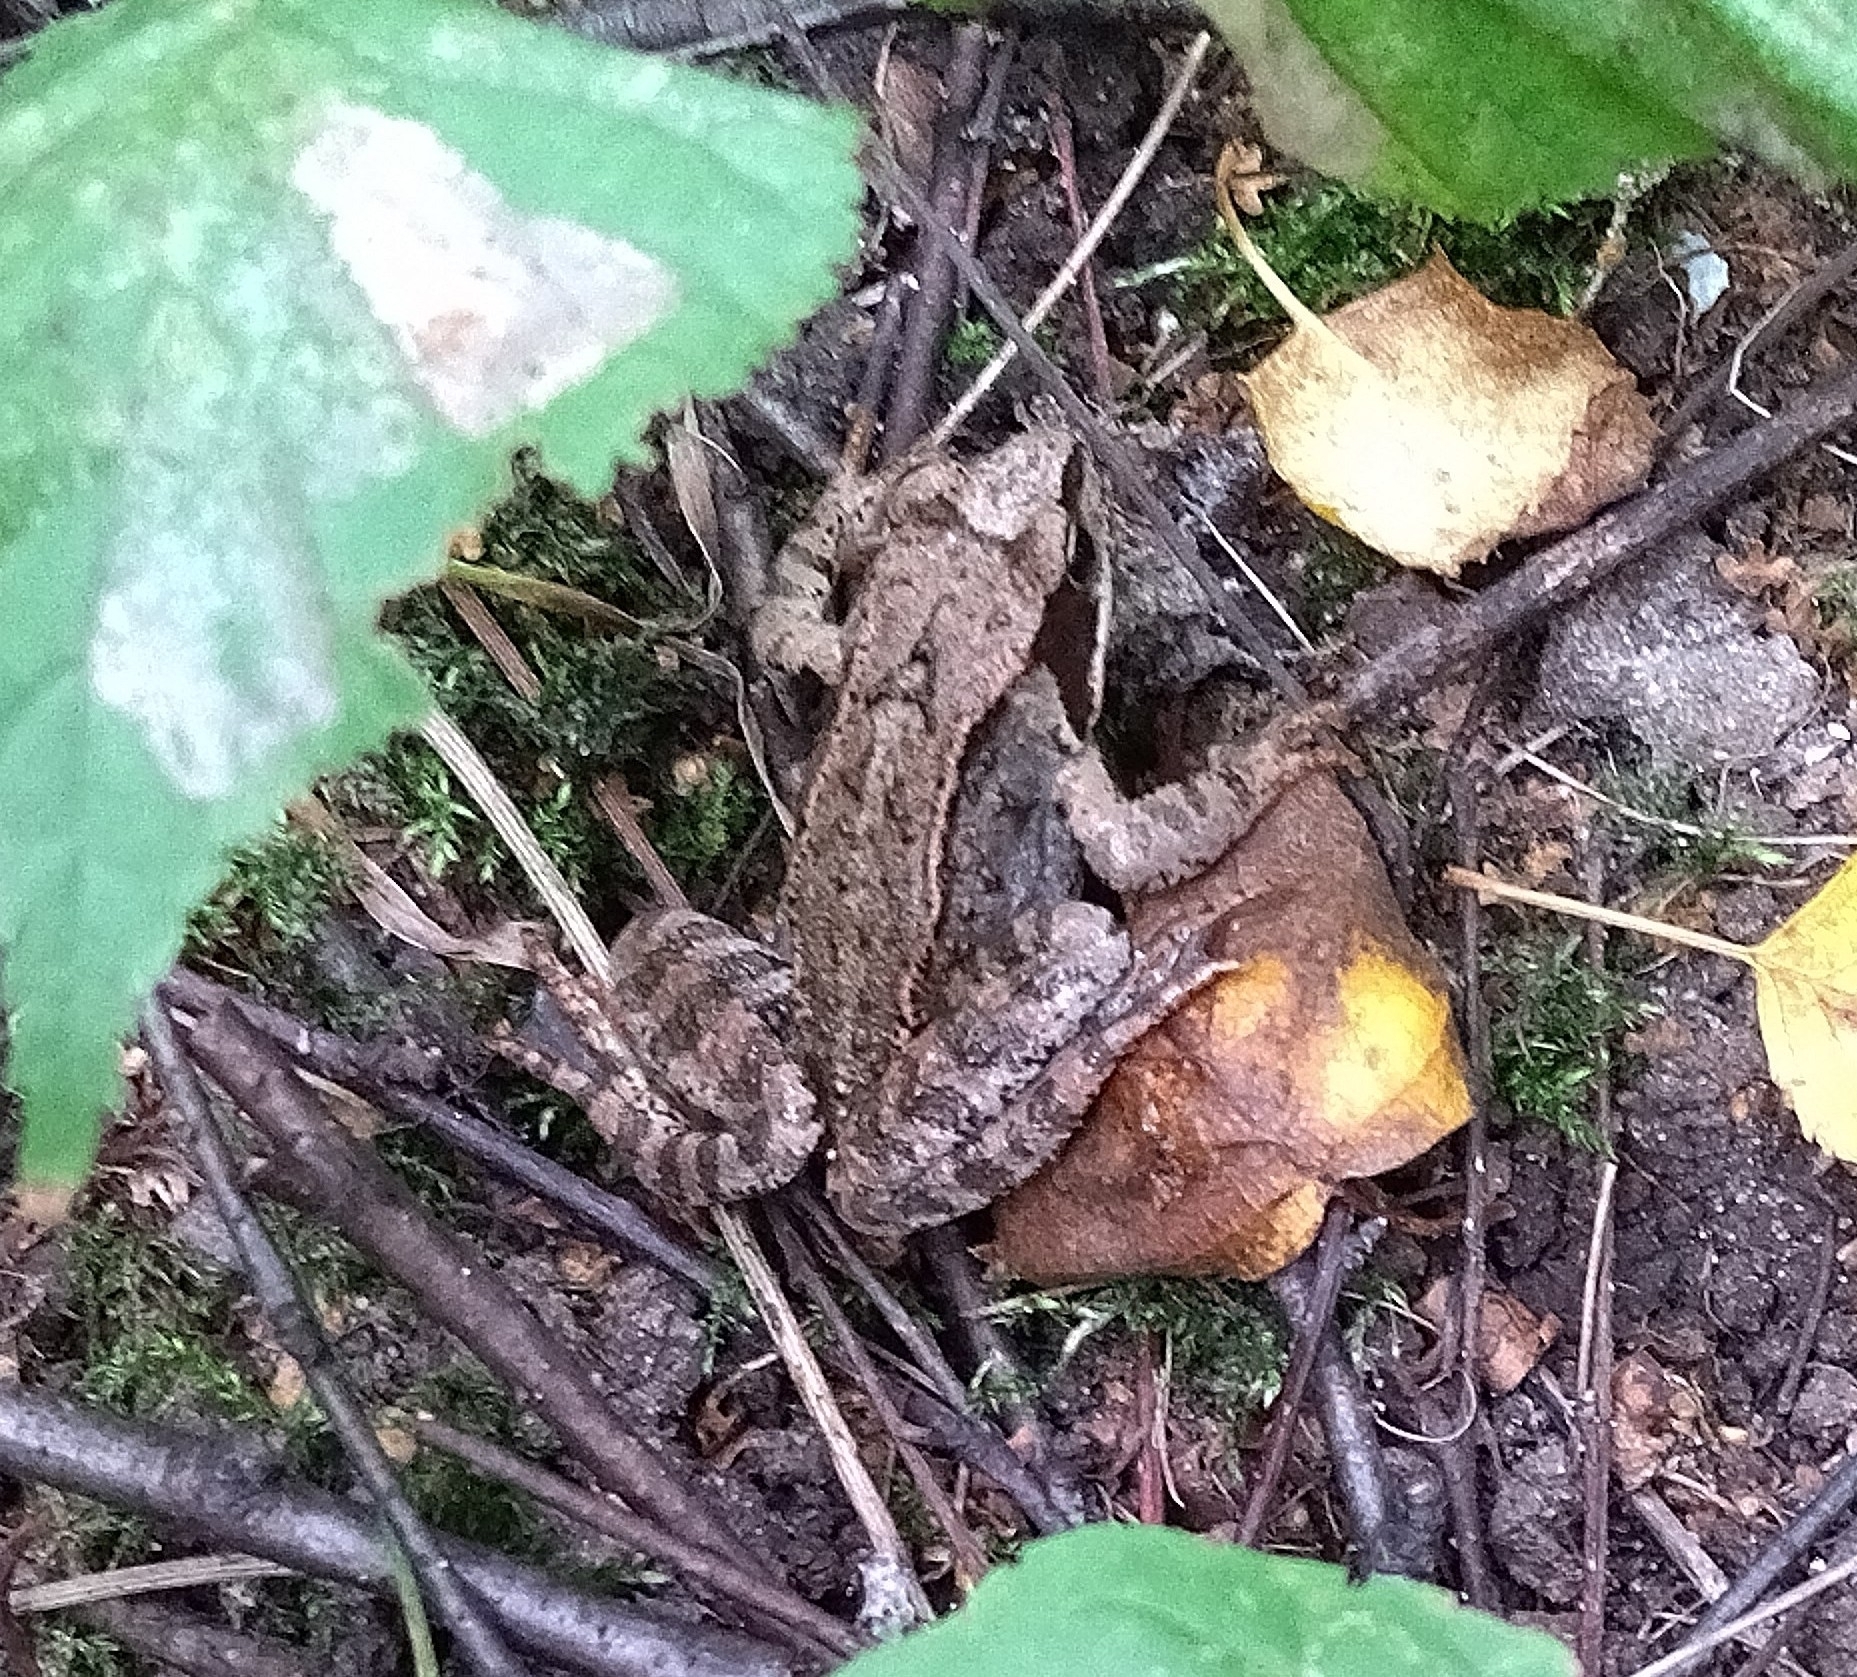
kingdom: Animalia
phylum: Chordata
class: Amphibia
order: Anura
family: Ranidae
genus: Rana
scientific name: Rana temporaria
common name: Common frog
